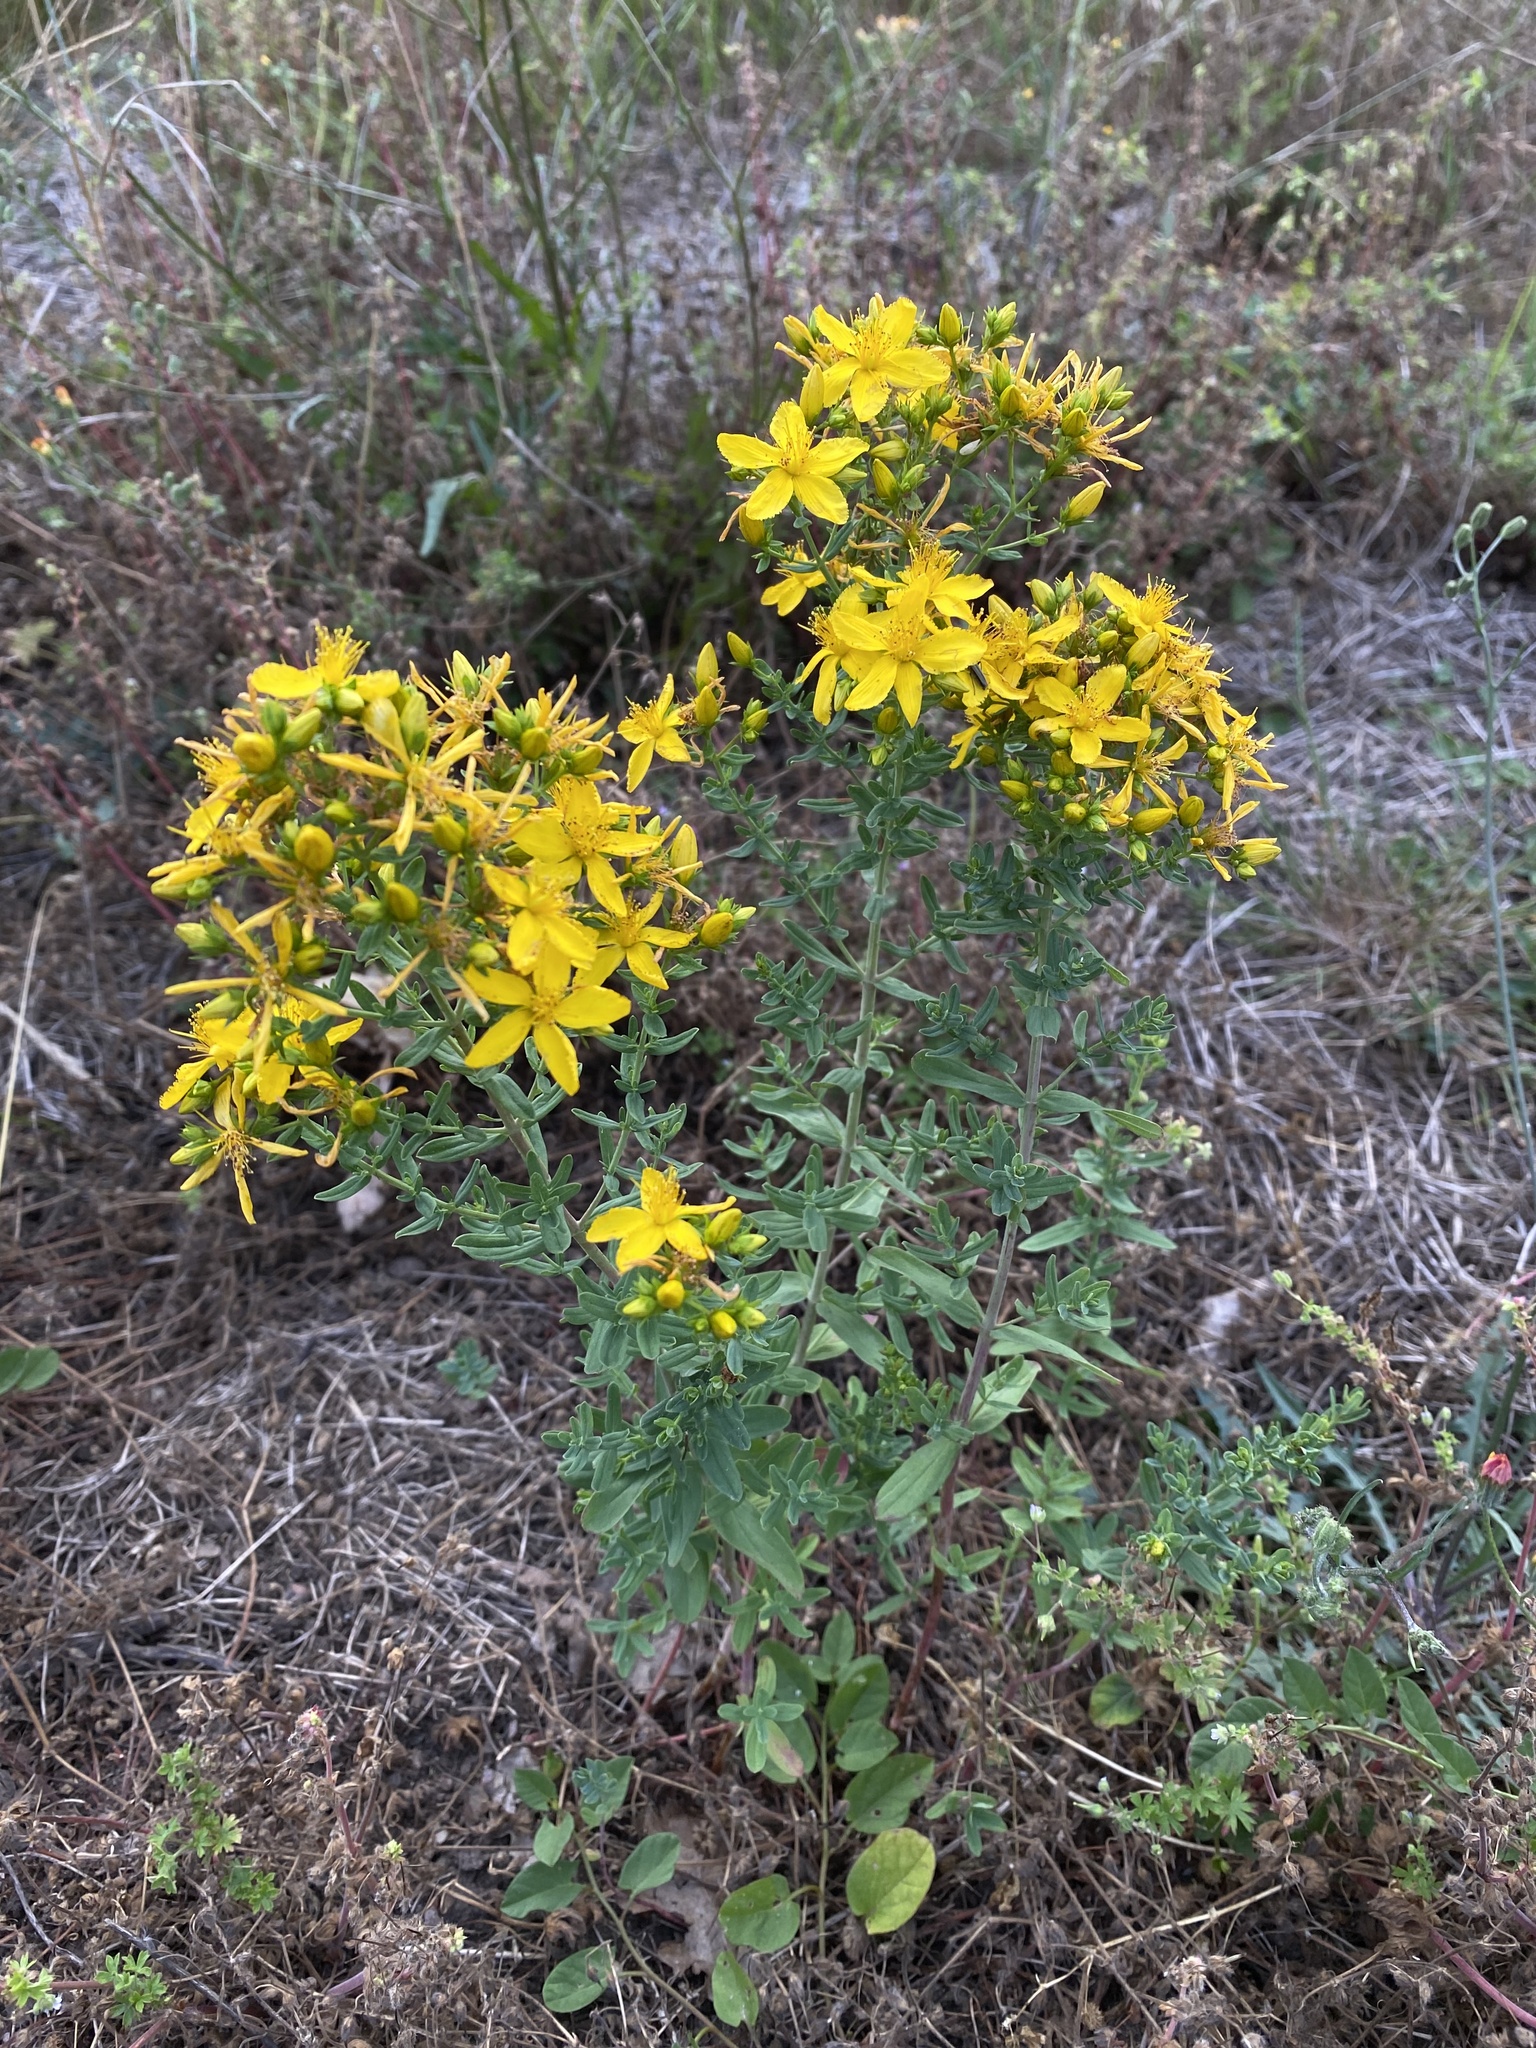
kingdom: Plantae
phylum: Tracheophyta
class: Magnoliopsida
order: Malpighiales
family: Hypericaceae
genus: Hypericum
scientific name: Hypericum perforatum
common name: Common st. johnswort
